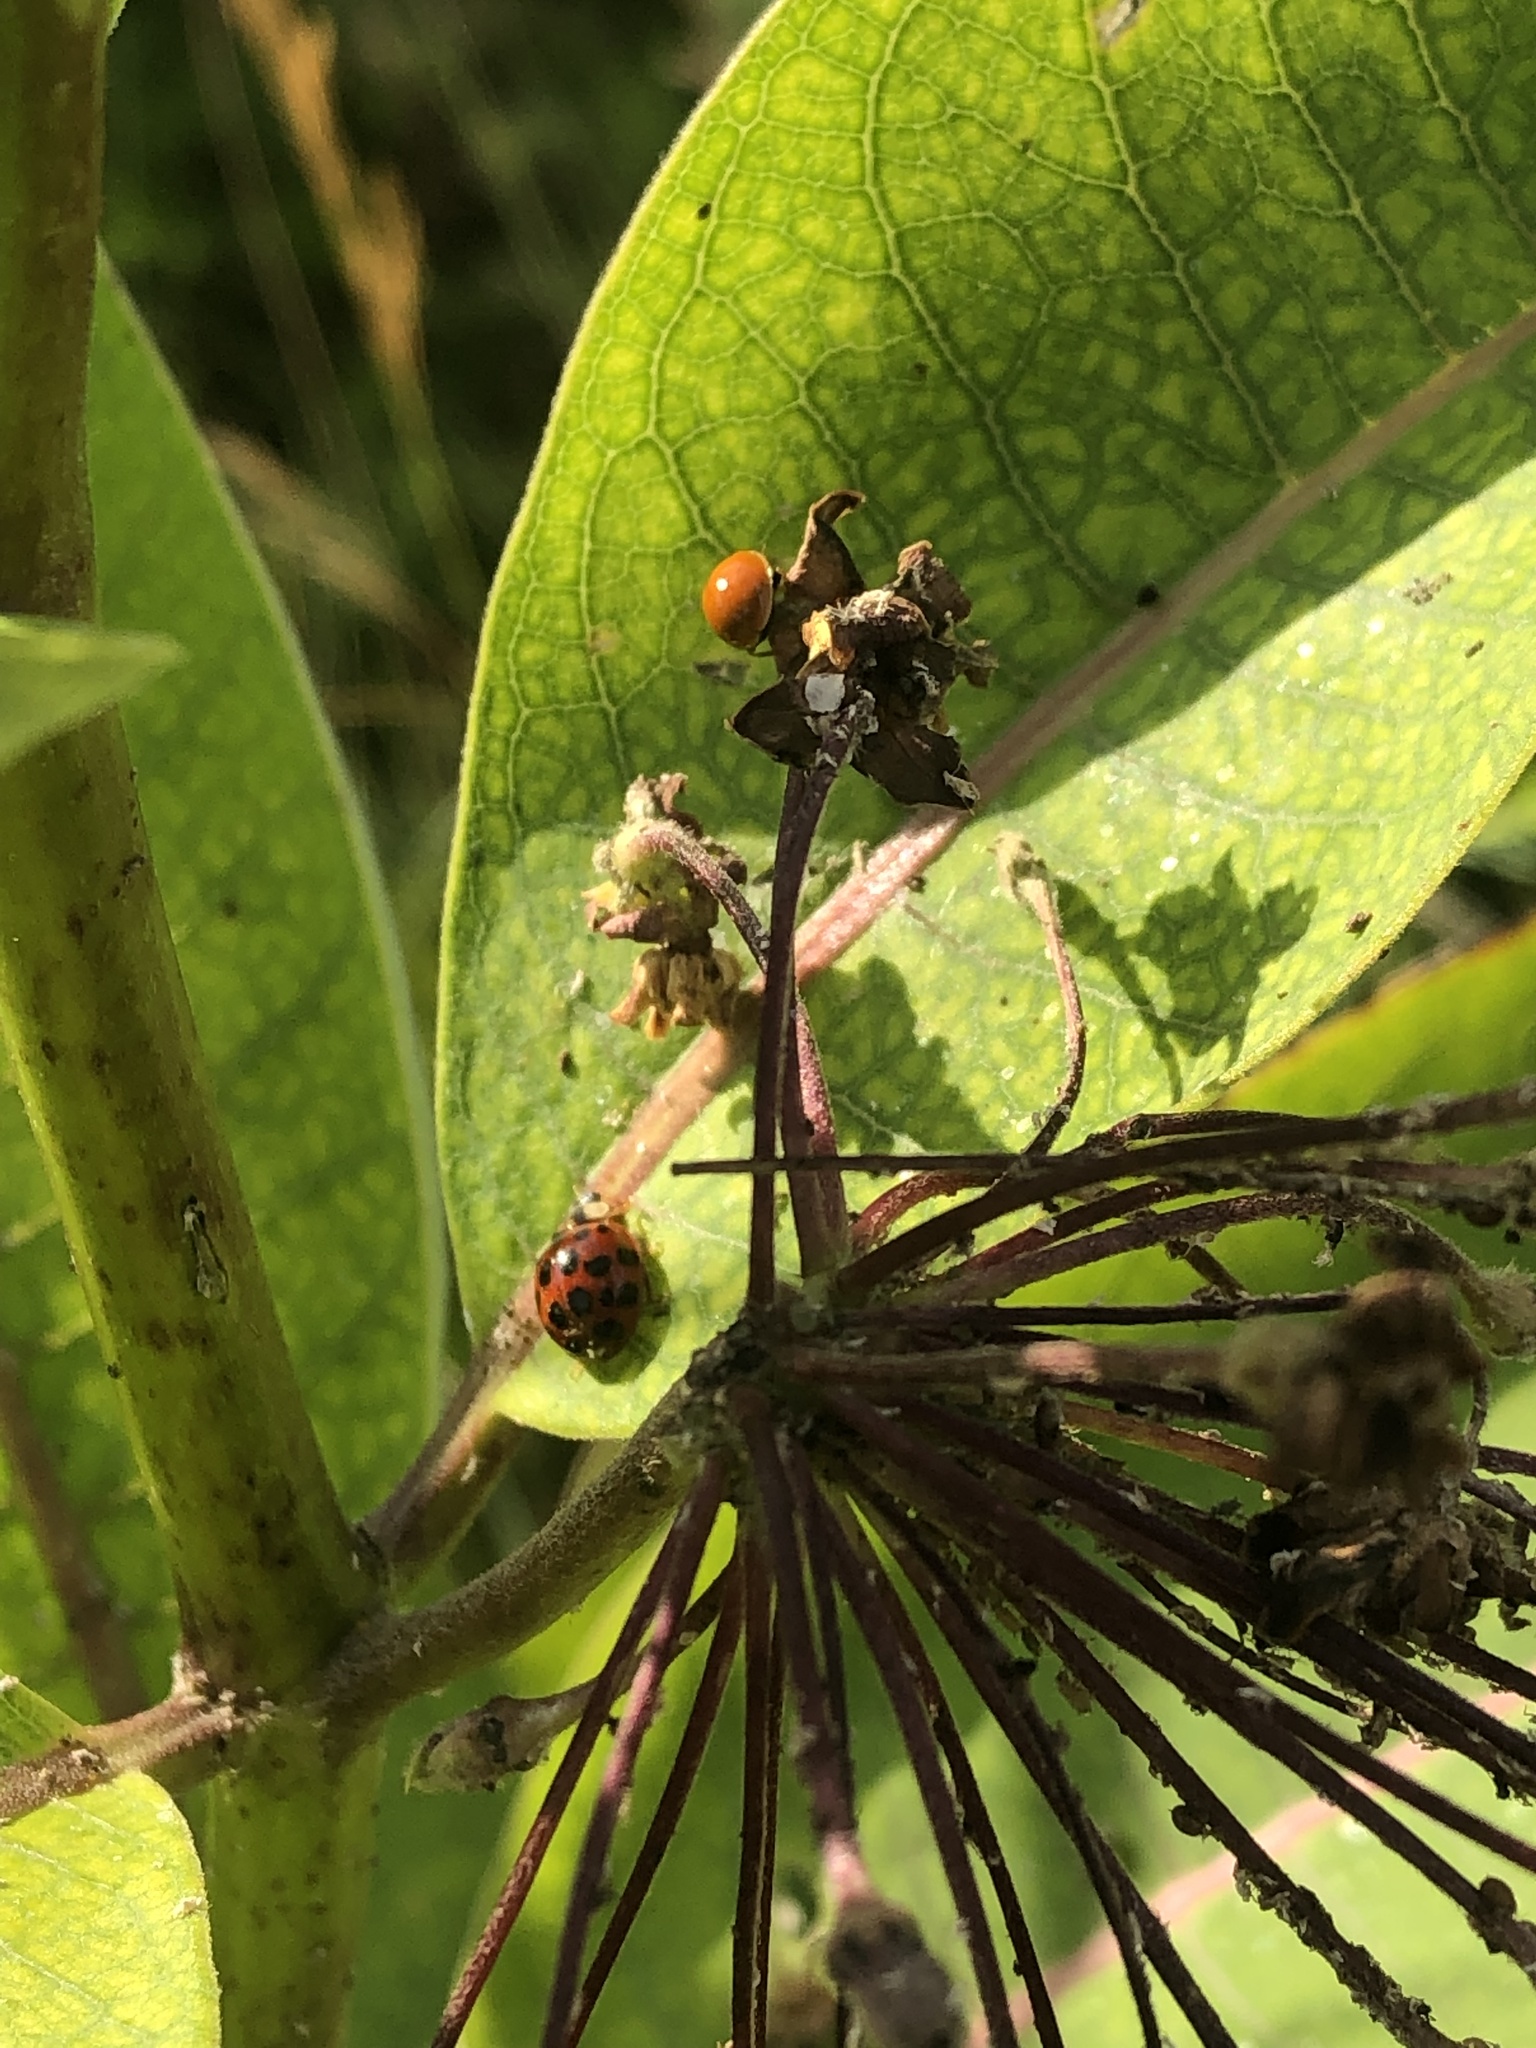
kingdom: Animalia
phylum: Arthropoda
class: Insecta
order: Coleoptera
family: Coccinellidae
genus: Harmonia
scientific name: Harmonia axyridis
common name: Harlequin ladybird
